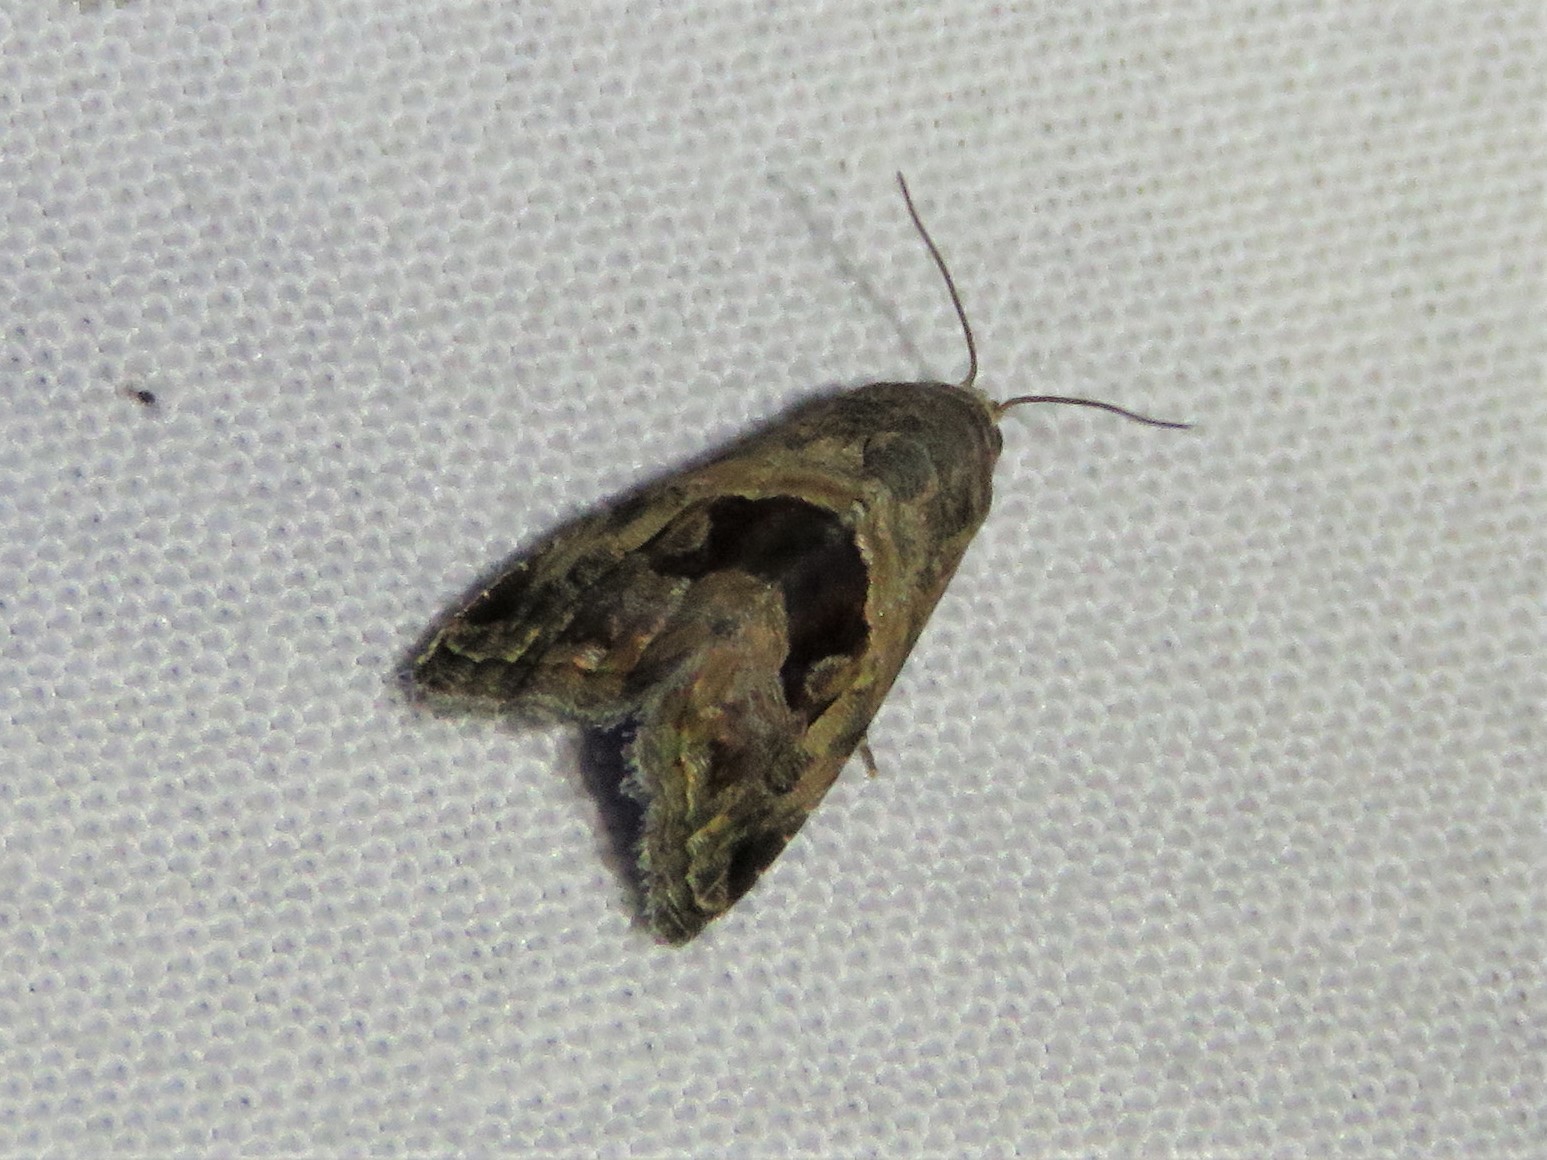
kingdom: Animalia
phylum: Arthropoda
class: Insecta
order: Lepidoptera
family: Noctuidae
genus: Tripudia
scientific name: Tripudia quadrifera
